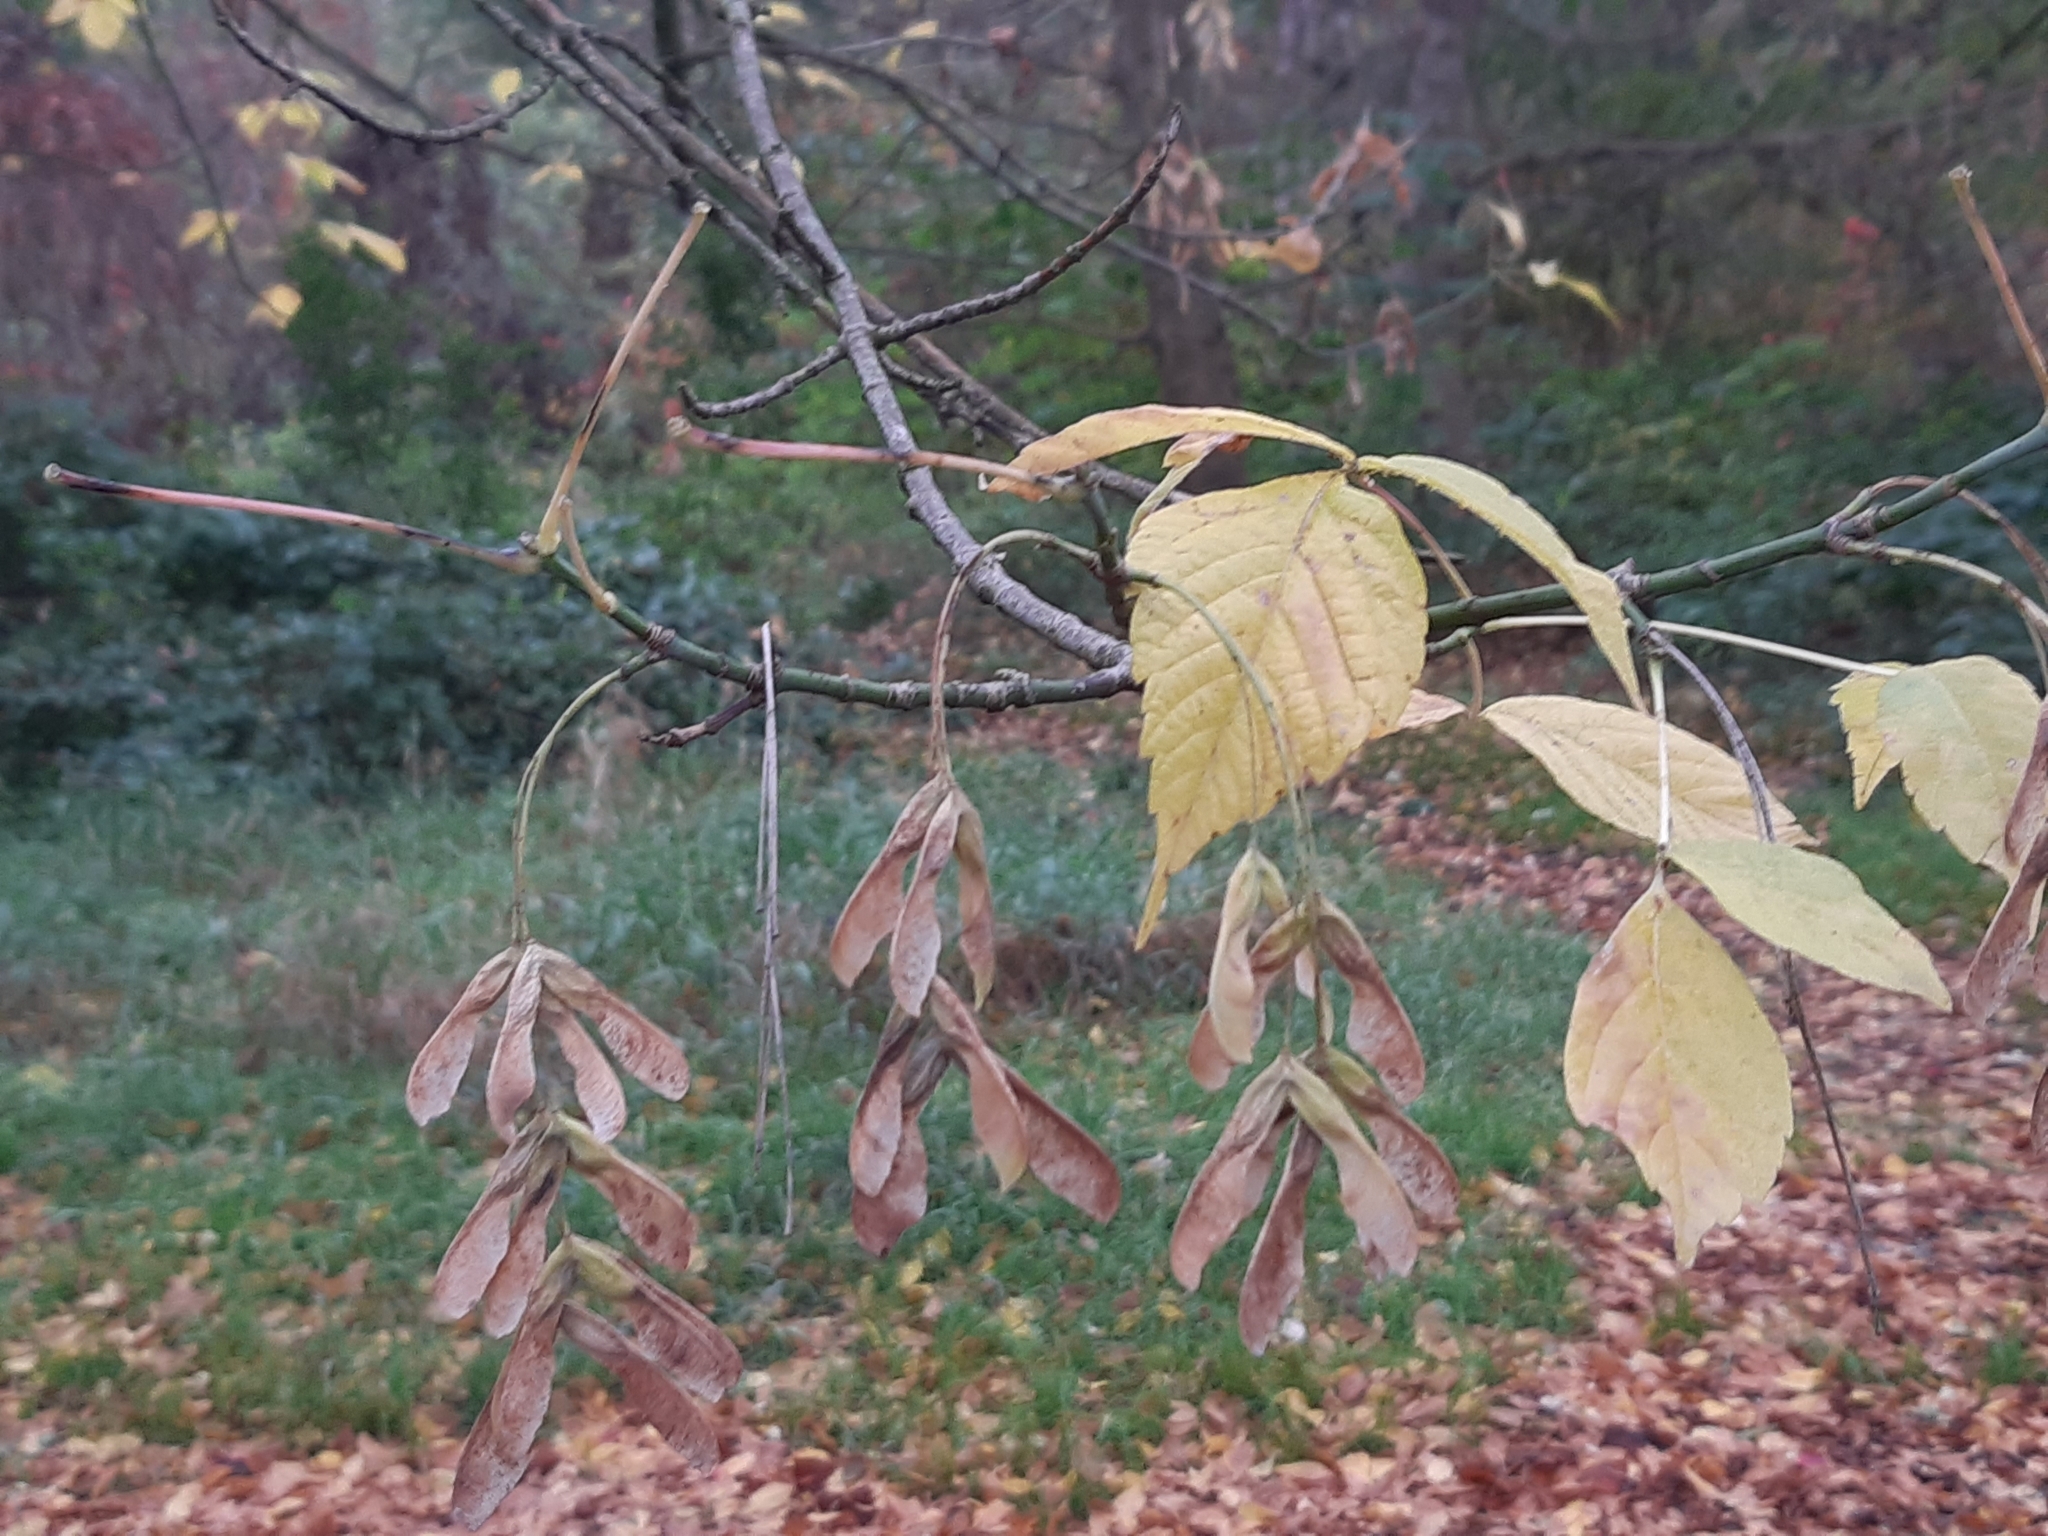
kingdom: Plantae
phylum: Tracheophyta
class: Magnoliopsida
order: Sapindales
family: Sapindaceae
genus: Acer
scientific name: Acer negundo
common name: Ashleaf maple
